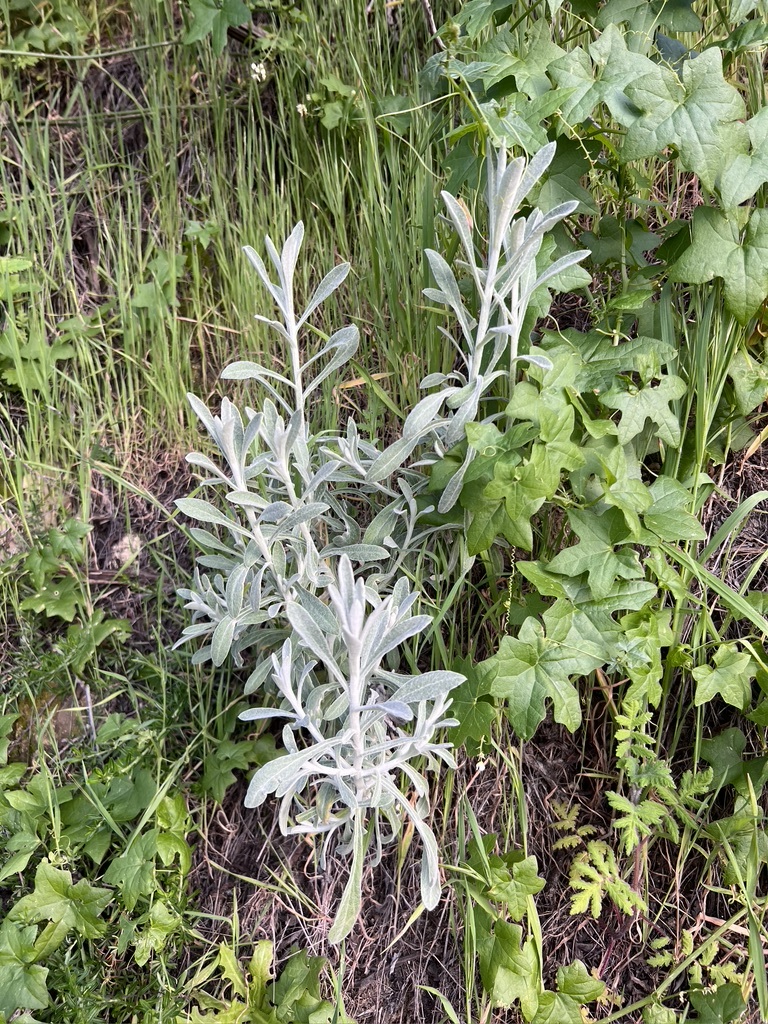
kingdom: Plantae
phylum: Tracheophyta
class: Magnoliopsida
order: Asterales
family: Asteraceae
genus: Pseudognaphalium
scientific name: Pseudognaphalium microcephalum
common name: San diego rabbit-tobacco
